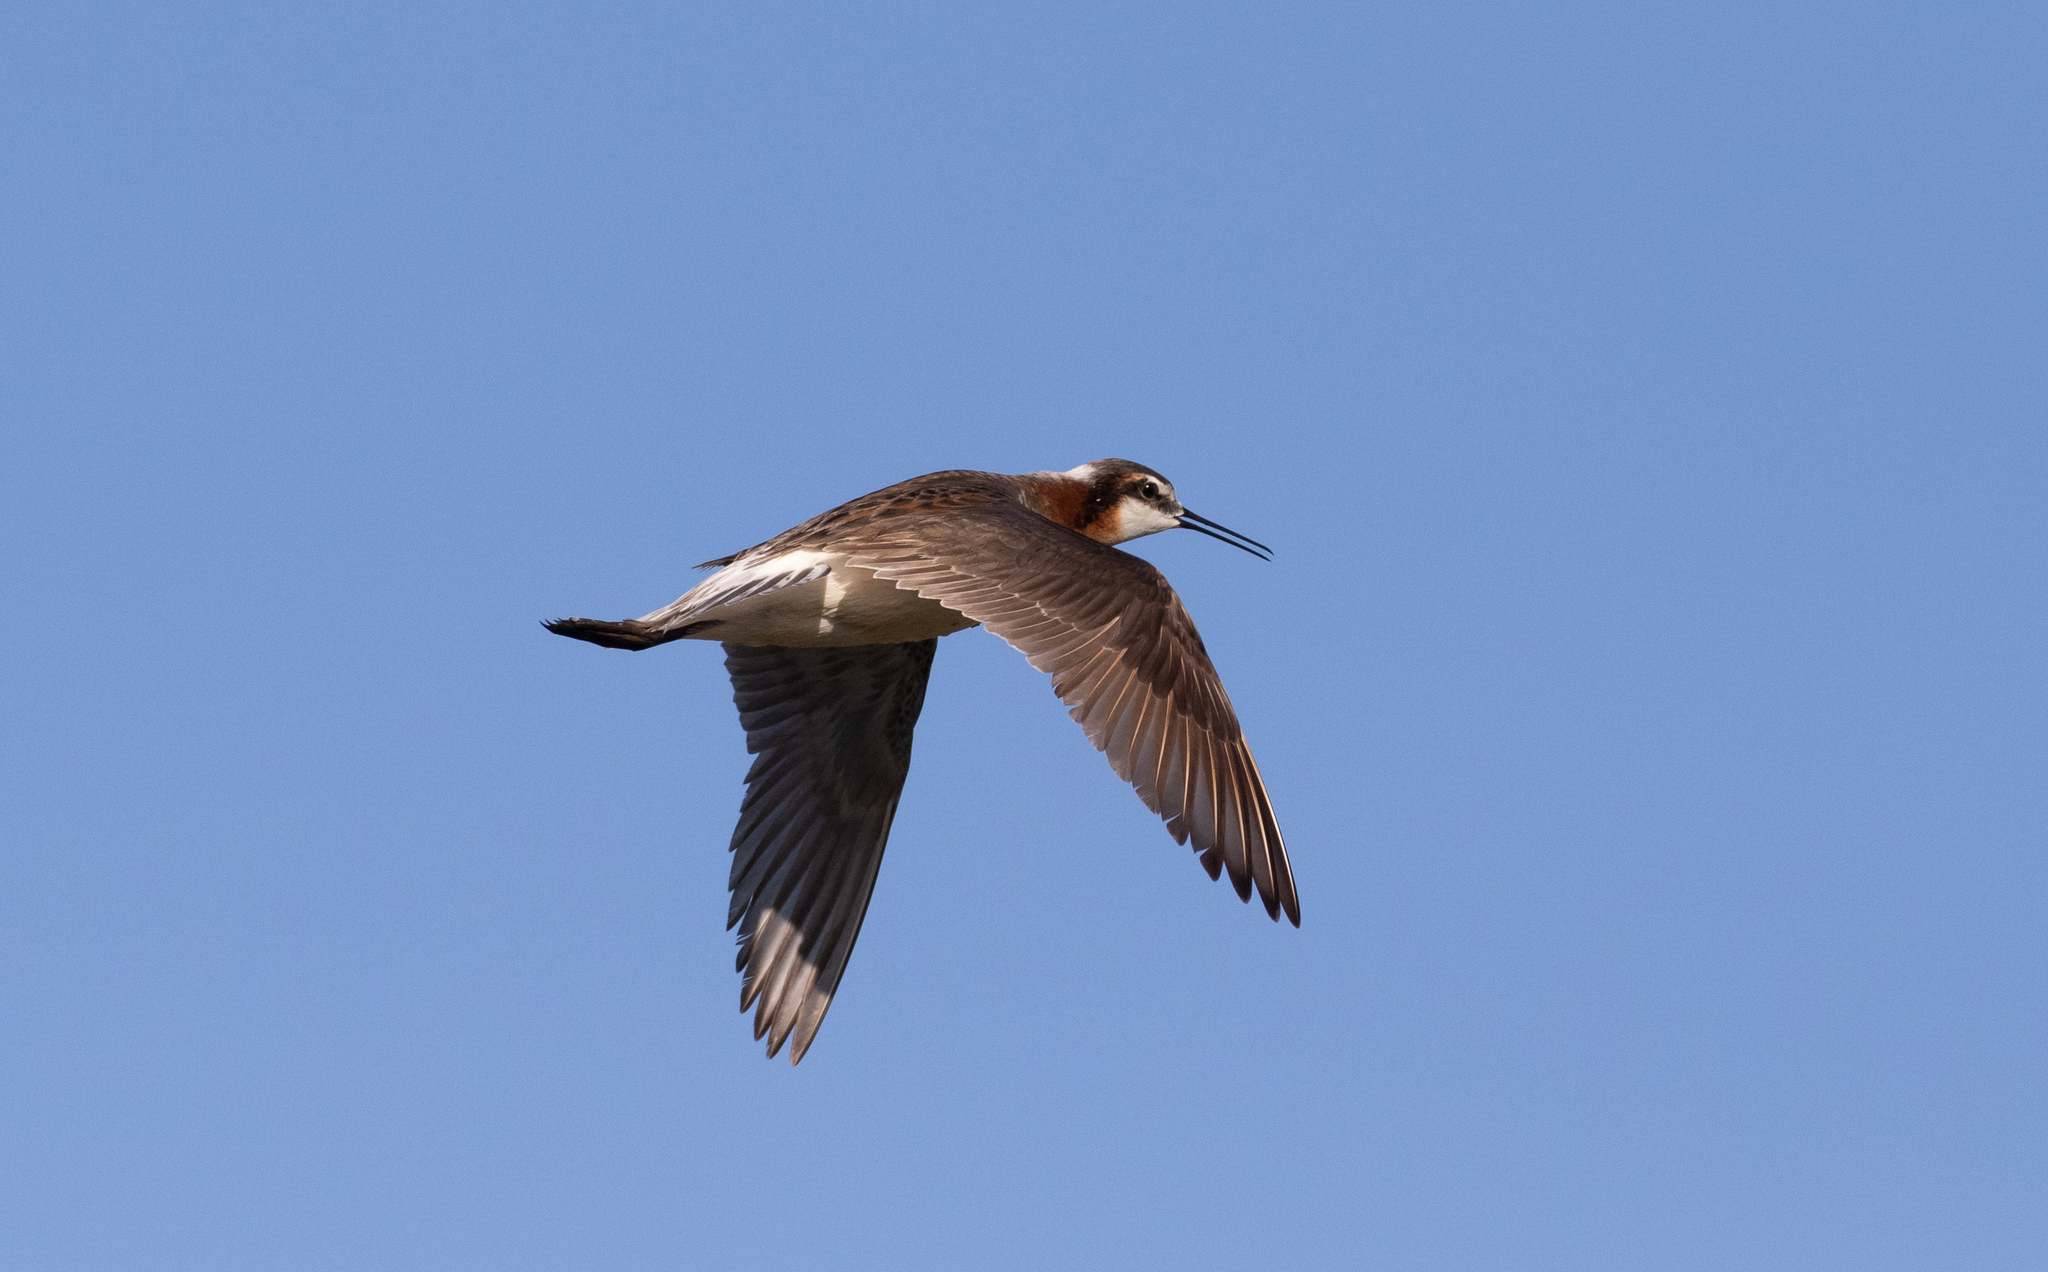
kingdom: Animalia
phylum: Chordata
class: Aves
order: Charadriiformes
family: Scolopacidae
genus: Phalaropus
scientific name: Phalaropus tricolor
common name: Wilson's phalarope
